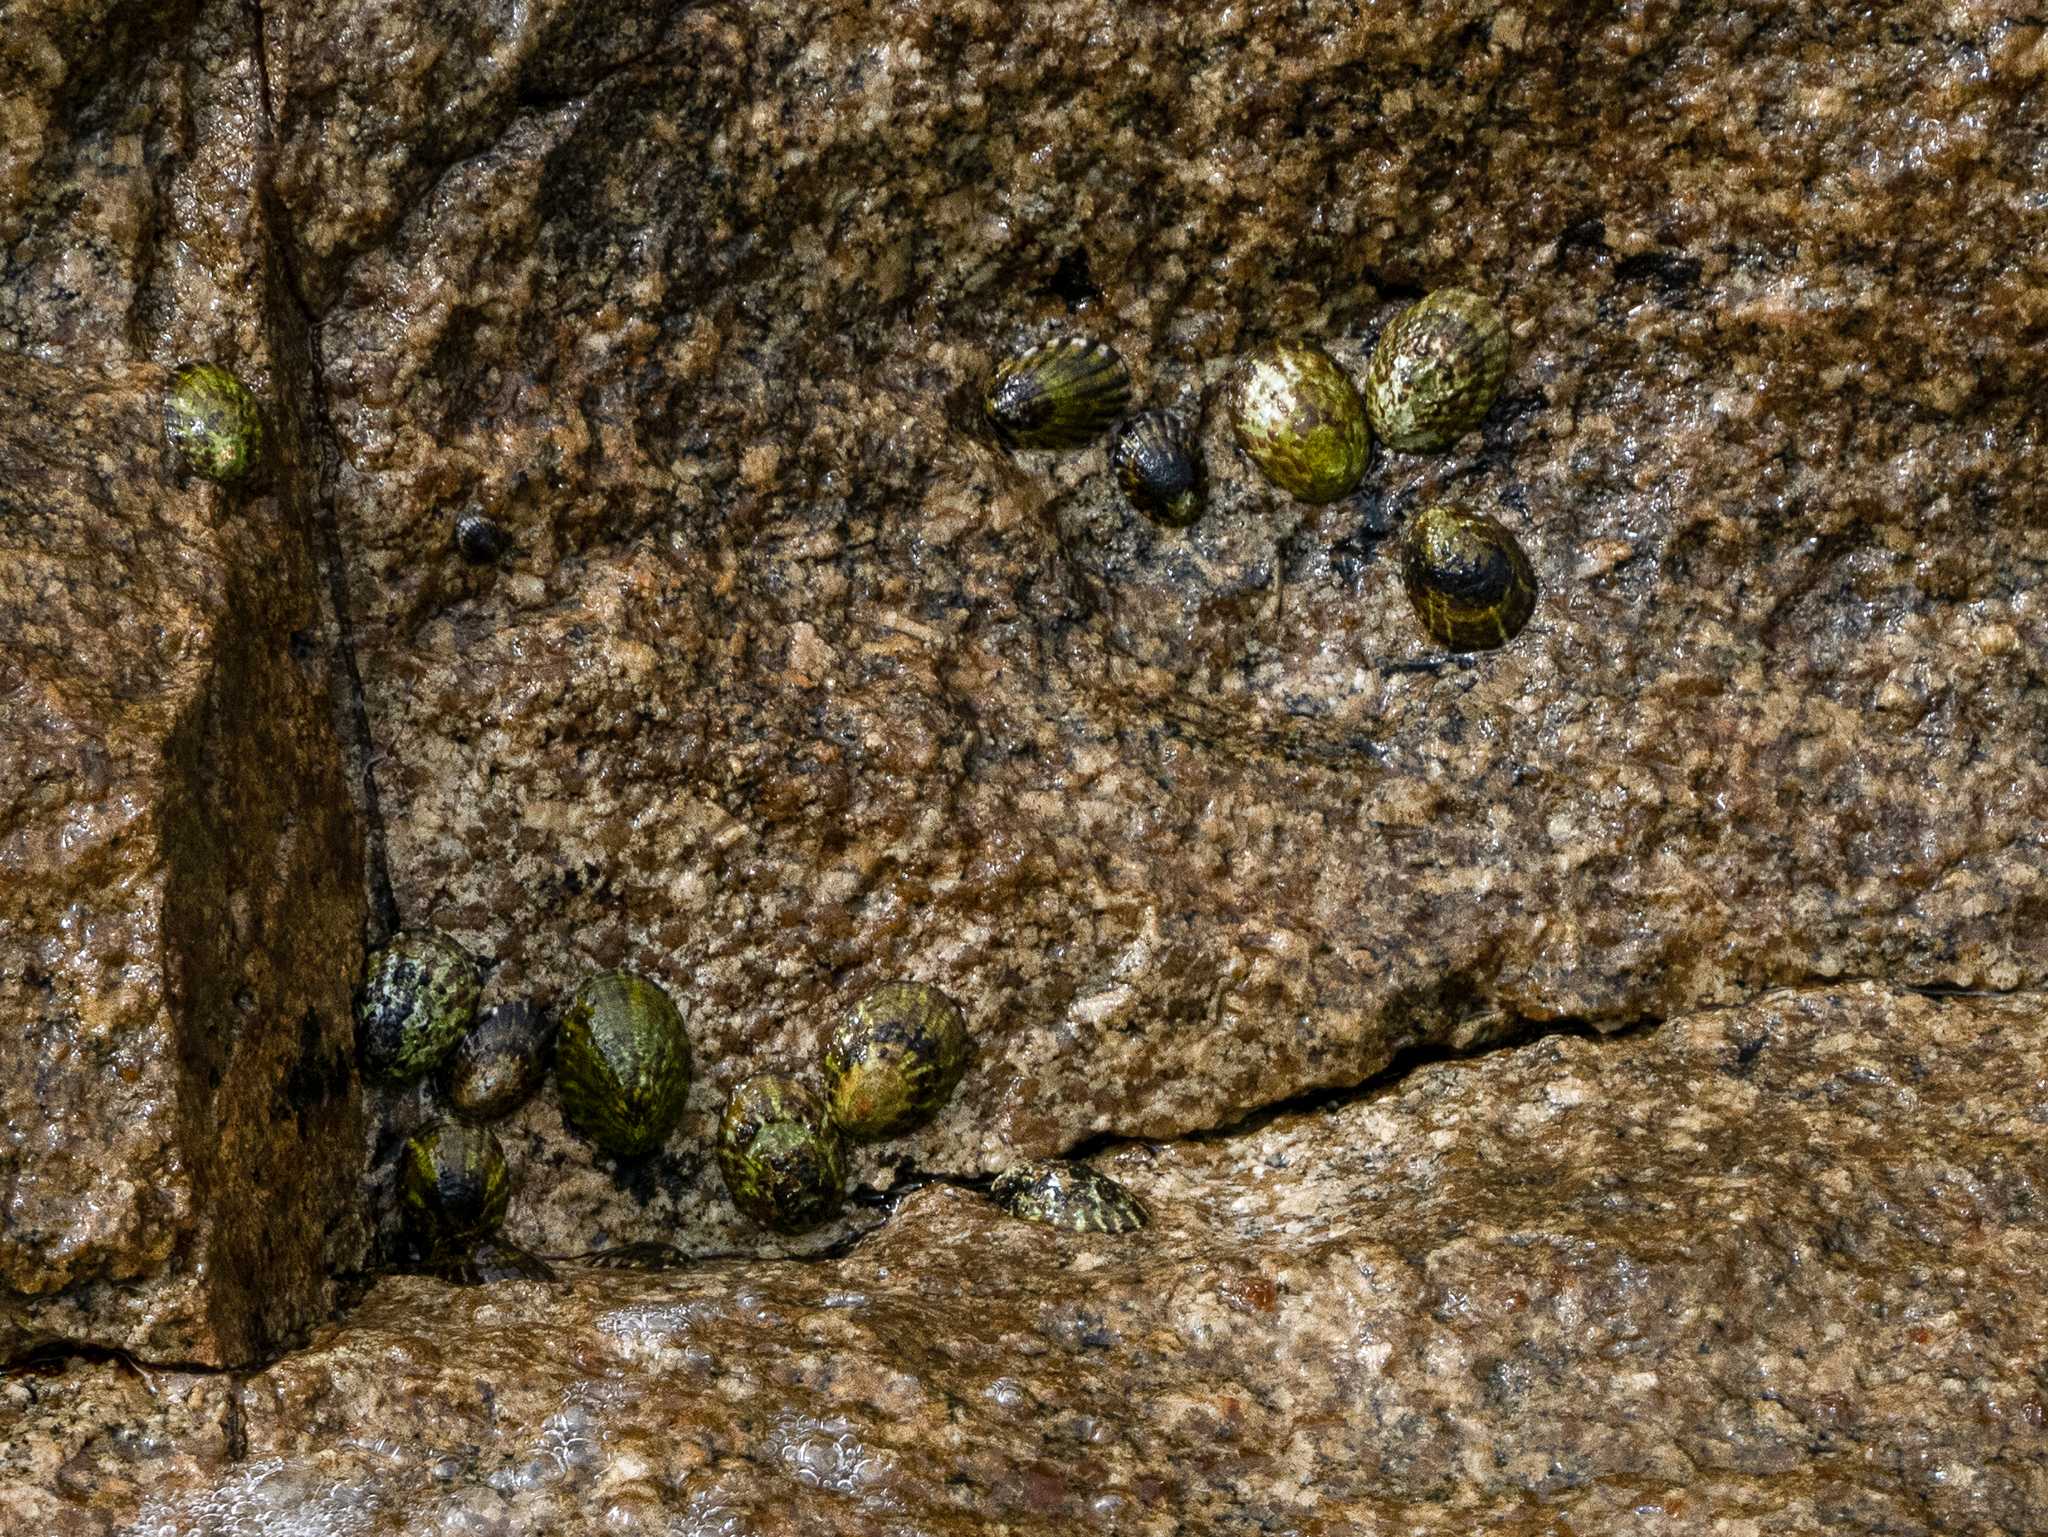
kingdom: Animalia
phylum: Mollusca
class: Gastropoda
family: Nacellidae
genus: Cellana
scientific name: Cellana strigilis
